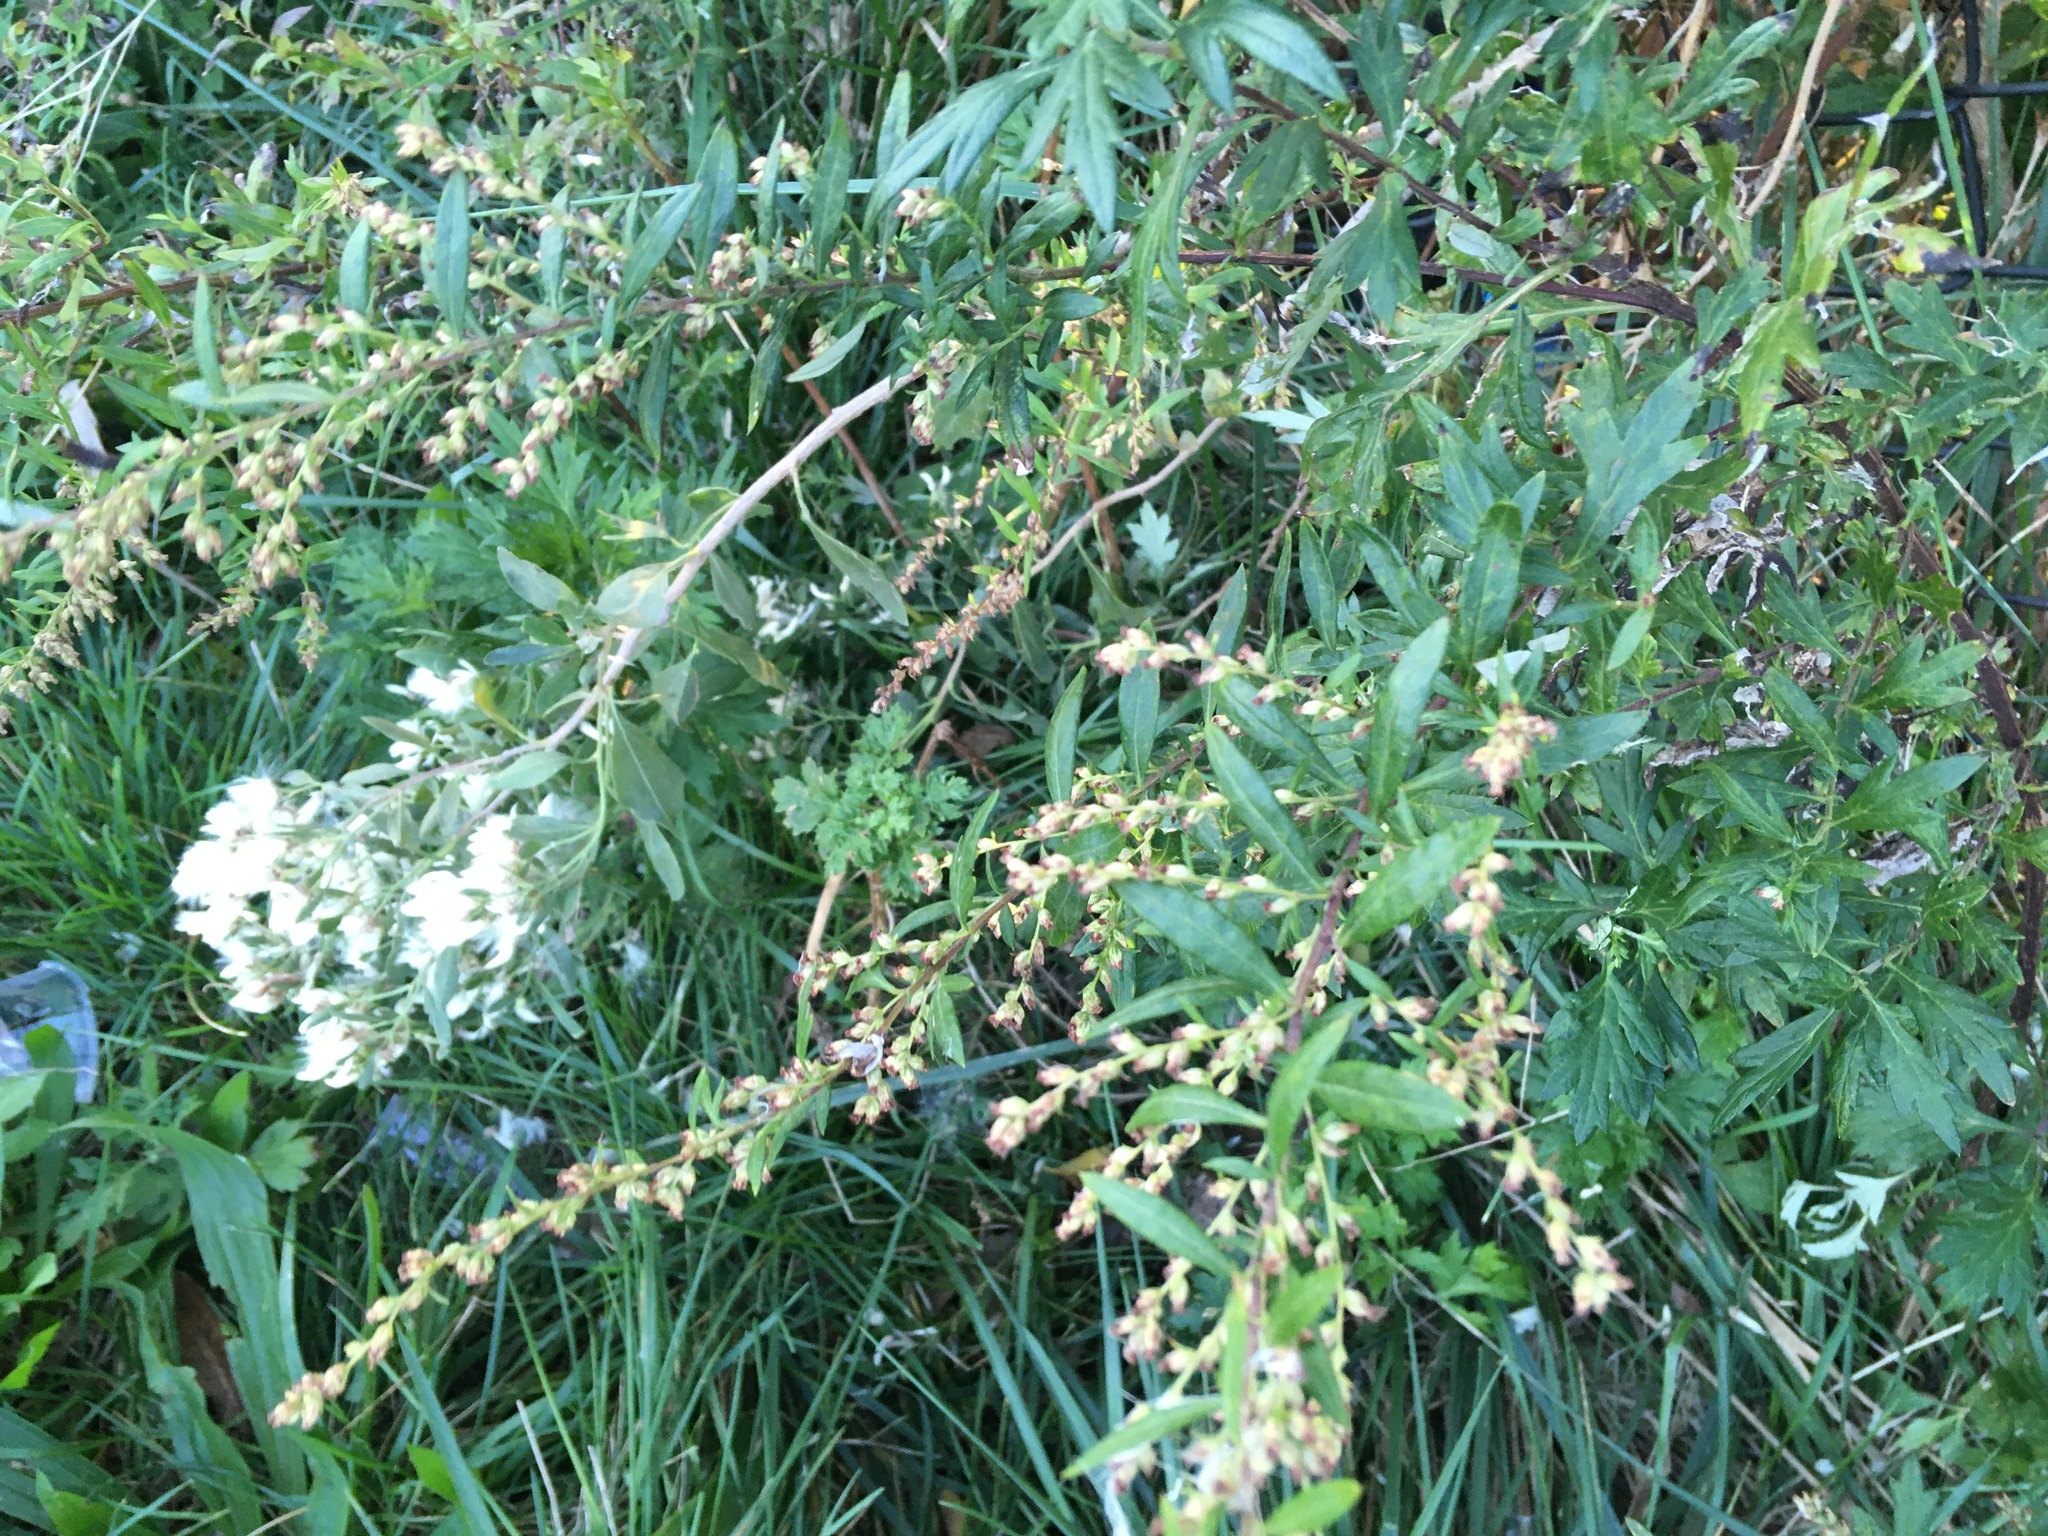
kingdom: Plantae
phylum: Tracheophyta
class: Magnoliopsida
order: Asterales
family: Asteraceae
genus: Artemisia
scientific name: Artemisia vulgaris
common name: Mugwort
